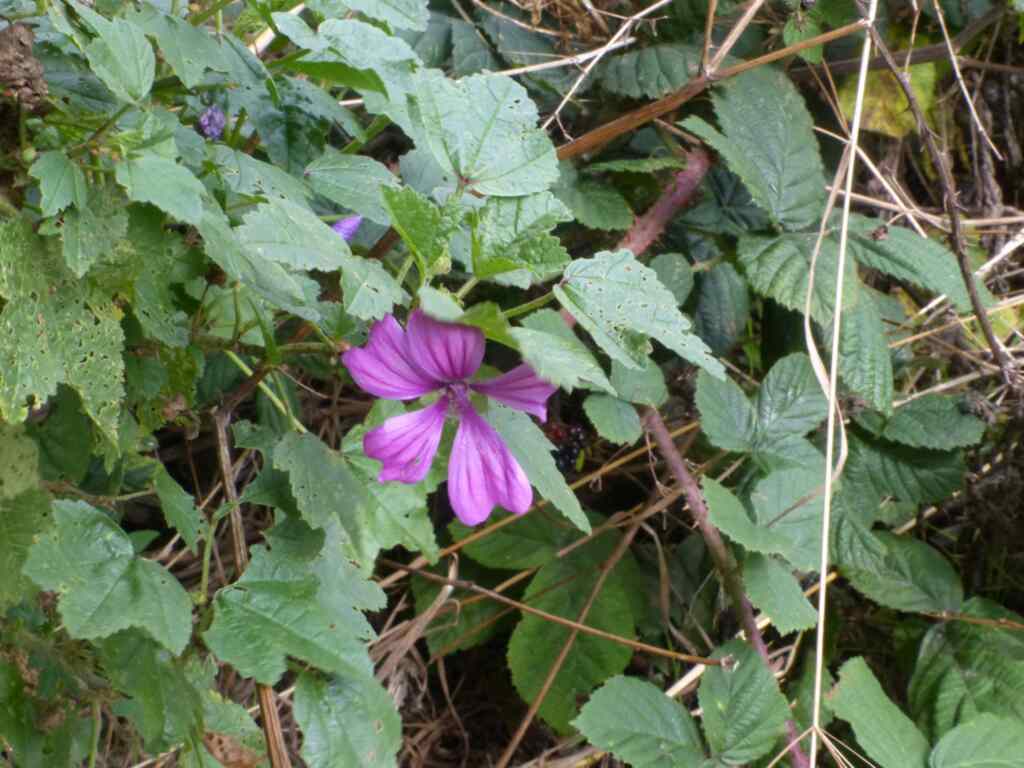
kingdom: Plantae
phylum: Tracheophyta
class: Magnoliopsida
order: Malvales
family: Malvaceae
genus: Malva
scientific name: Malva sylvestris
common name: Common mallow
